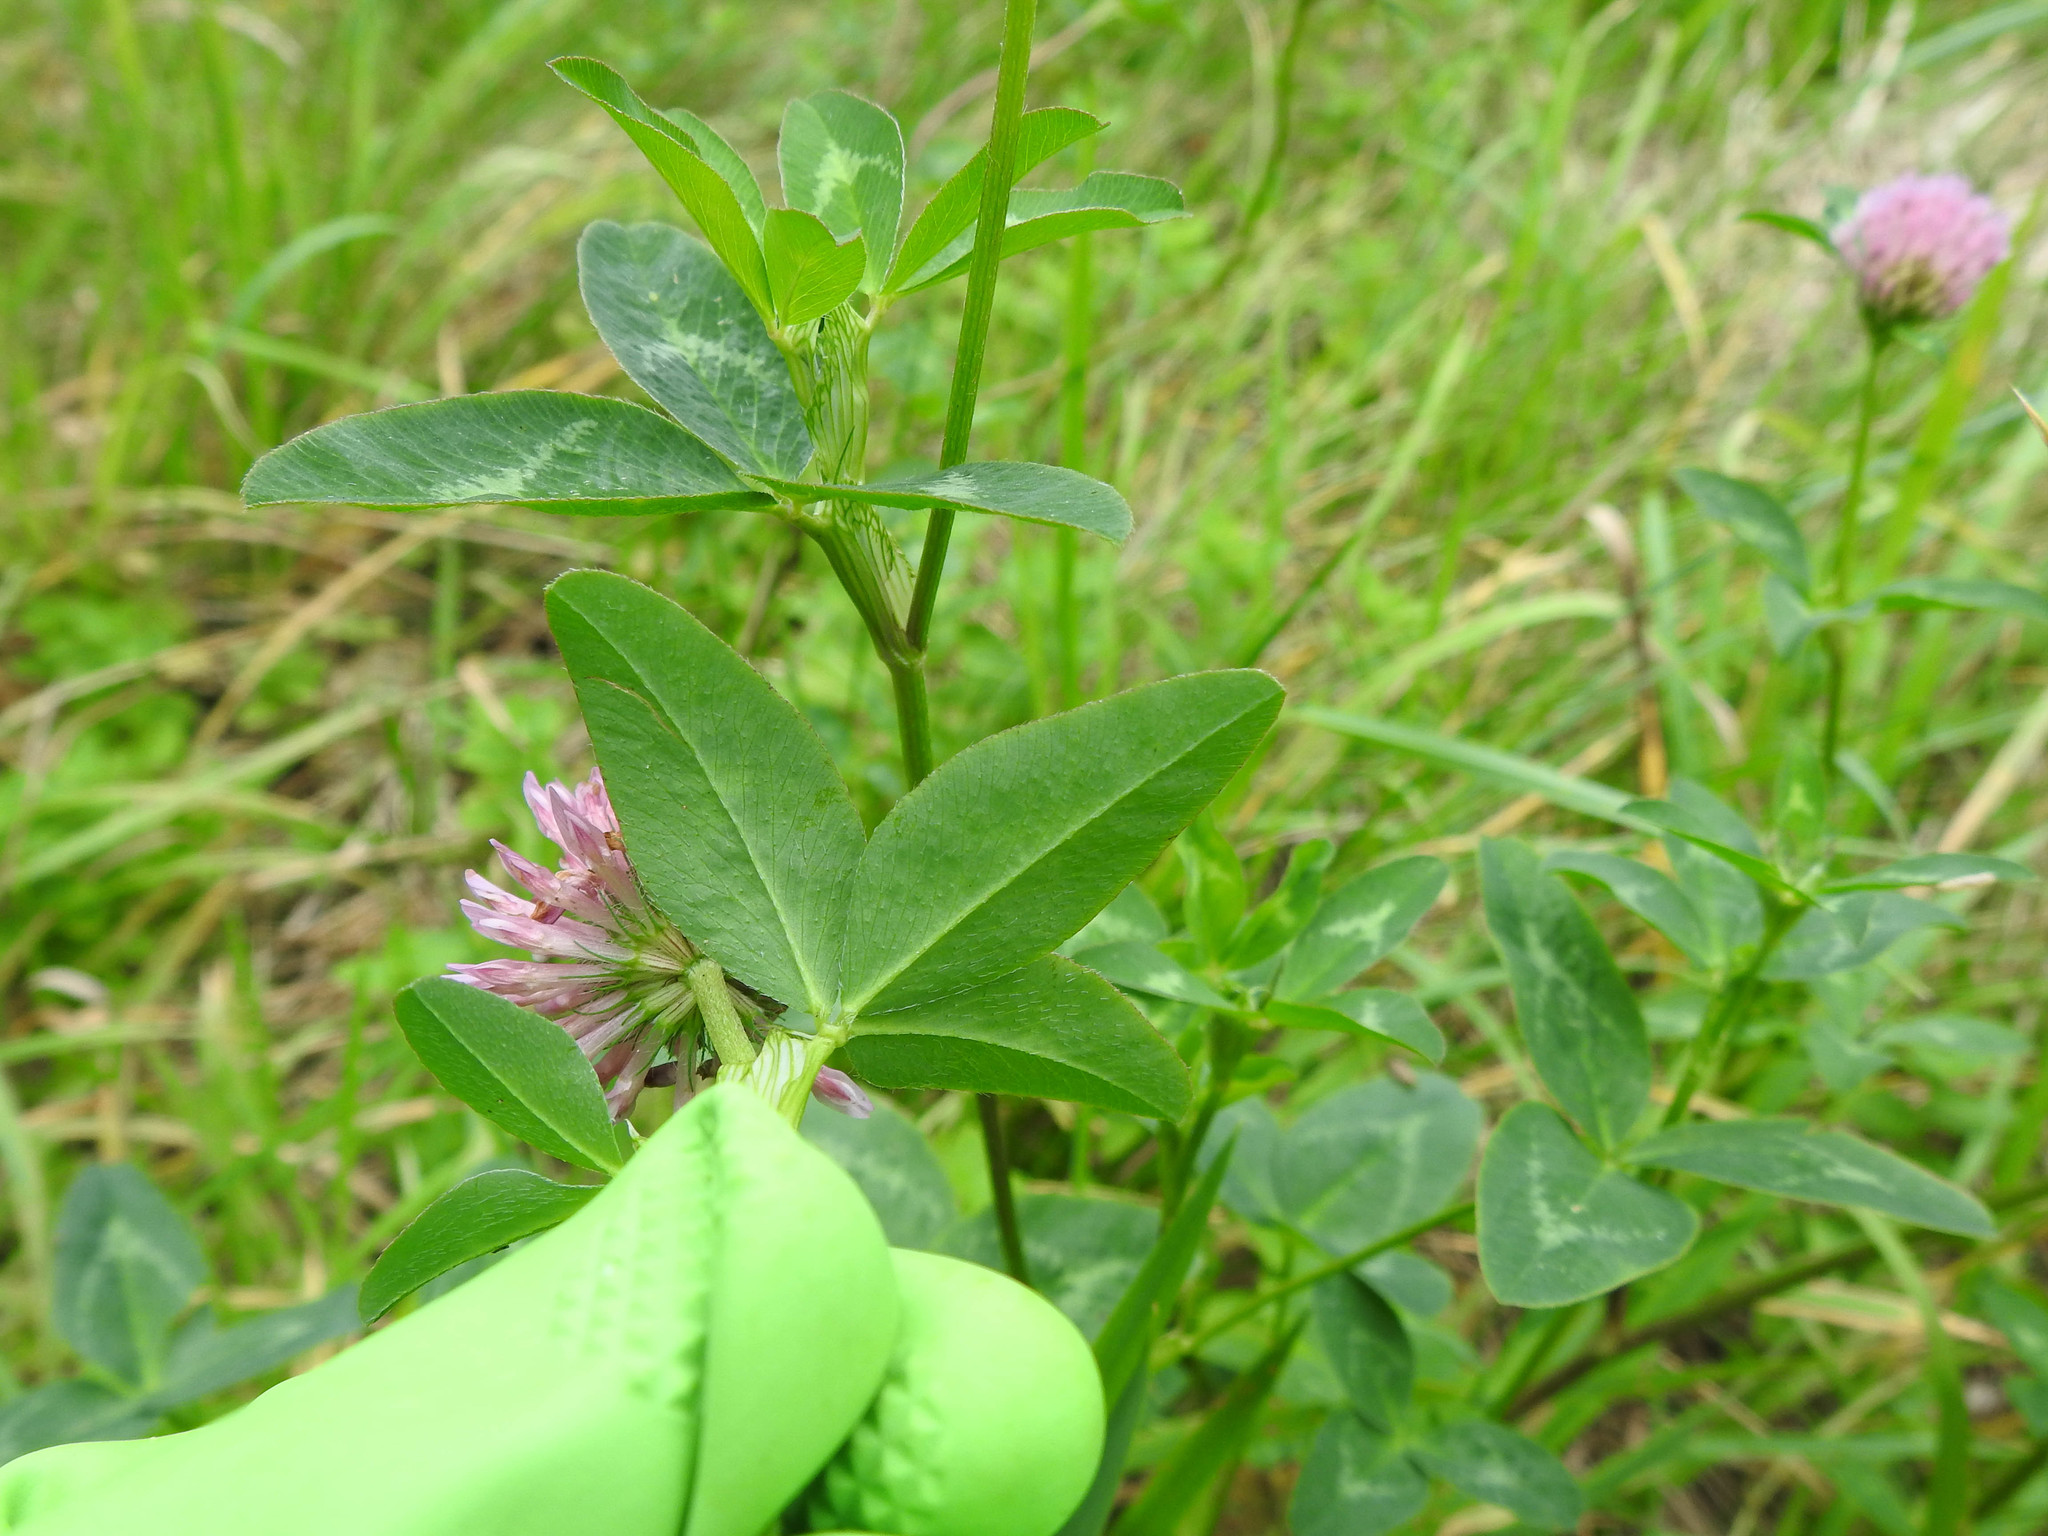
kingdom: Plantae
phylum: Tracheophyta
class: Magnoliopsida
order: Fabales
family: Fabaceae
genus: Trifolium
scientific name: Trifolium pratense
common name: Red clover
